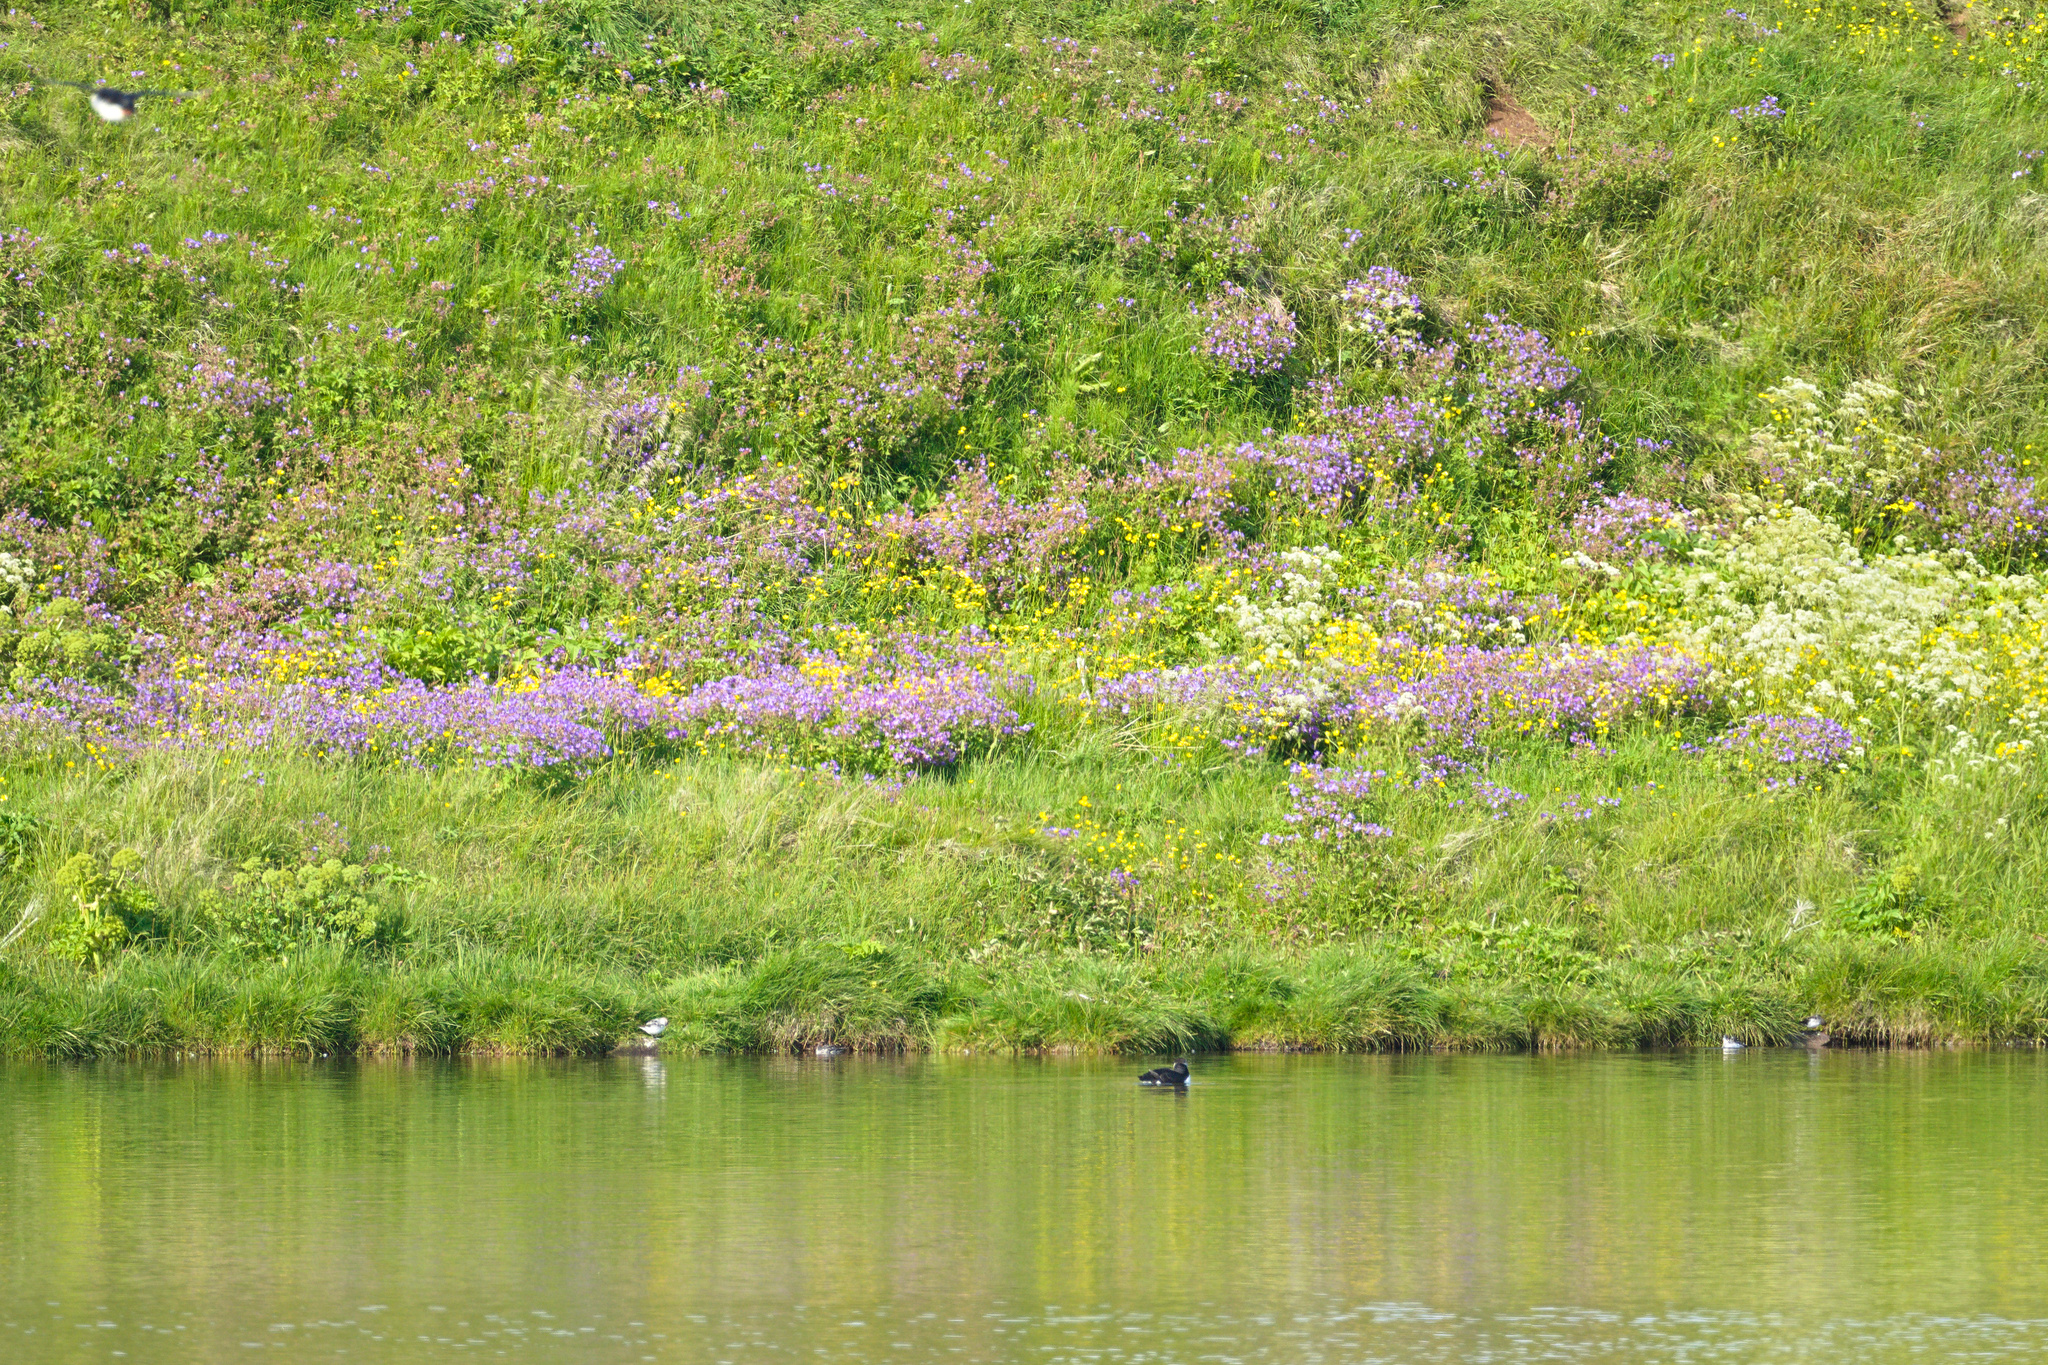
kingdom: Animalia
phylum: Chordata
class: Aves
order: Charadriiformes
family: Scolopacidae
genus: Phalaropus
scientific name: Phalaropus lobatus
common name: Red-necked phalarope
